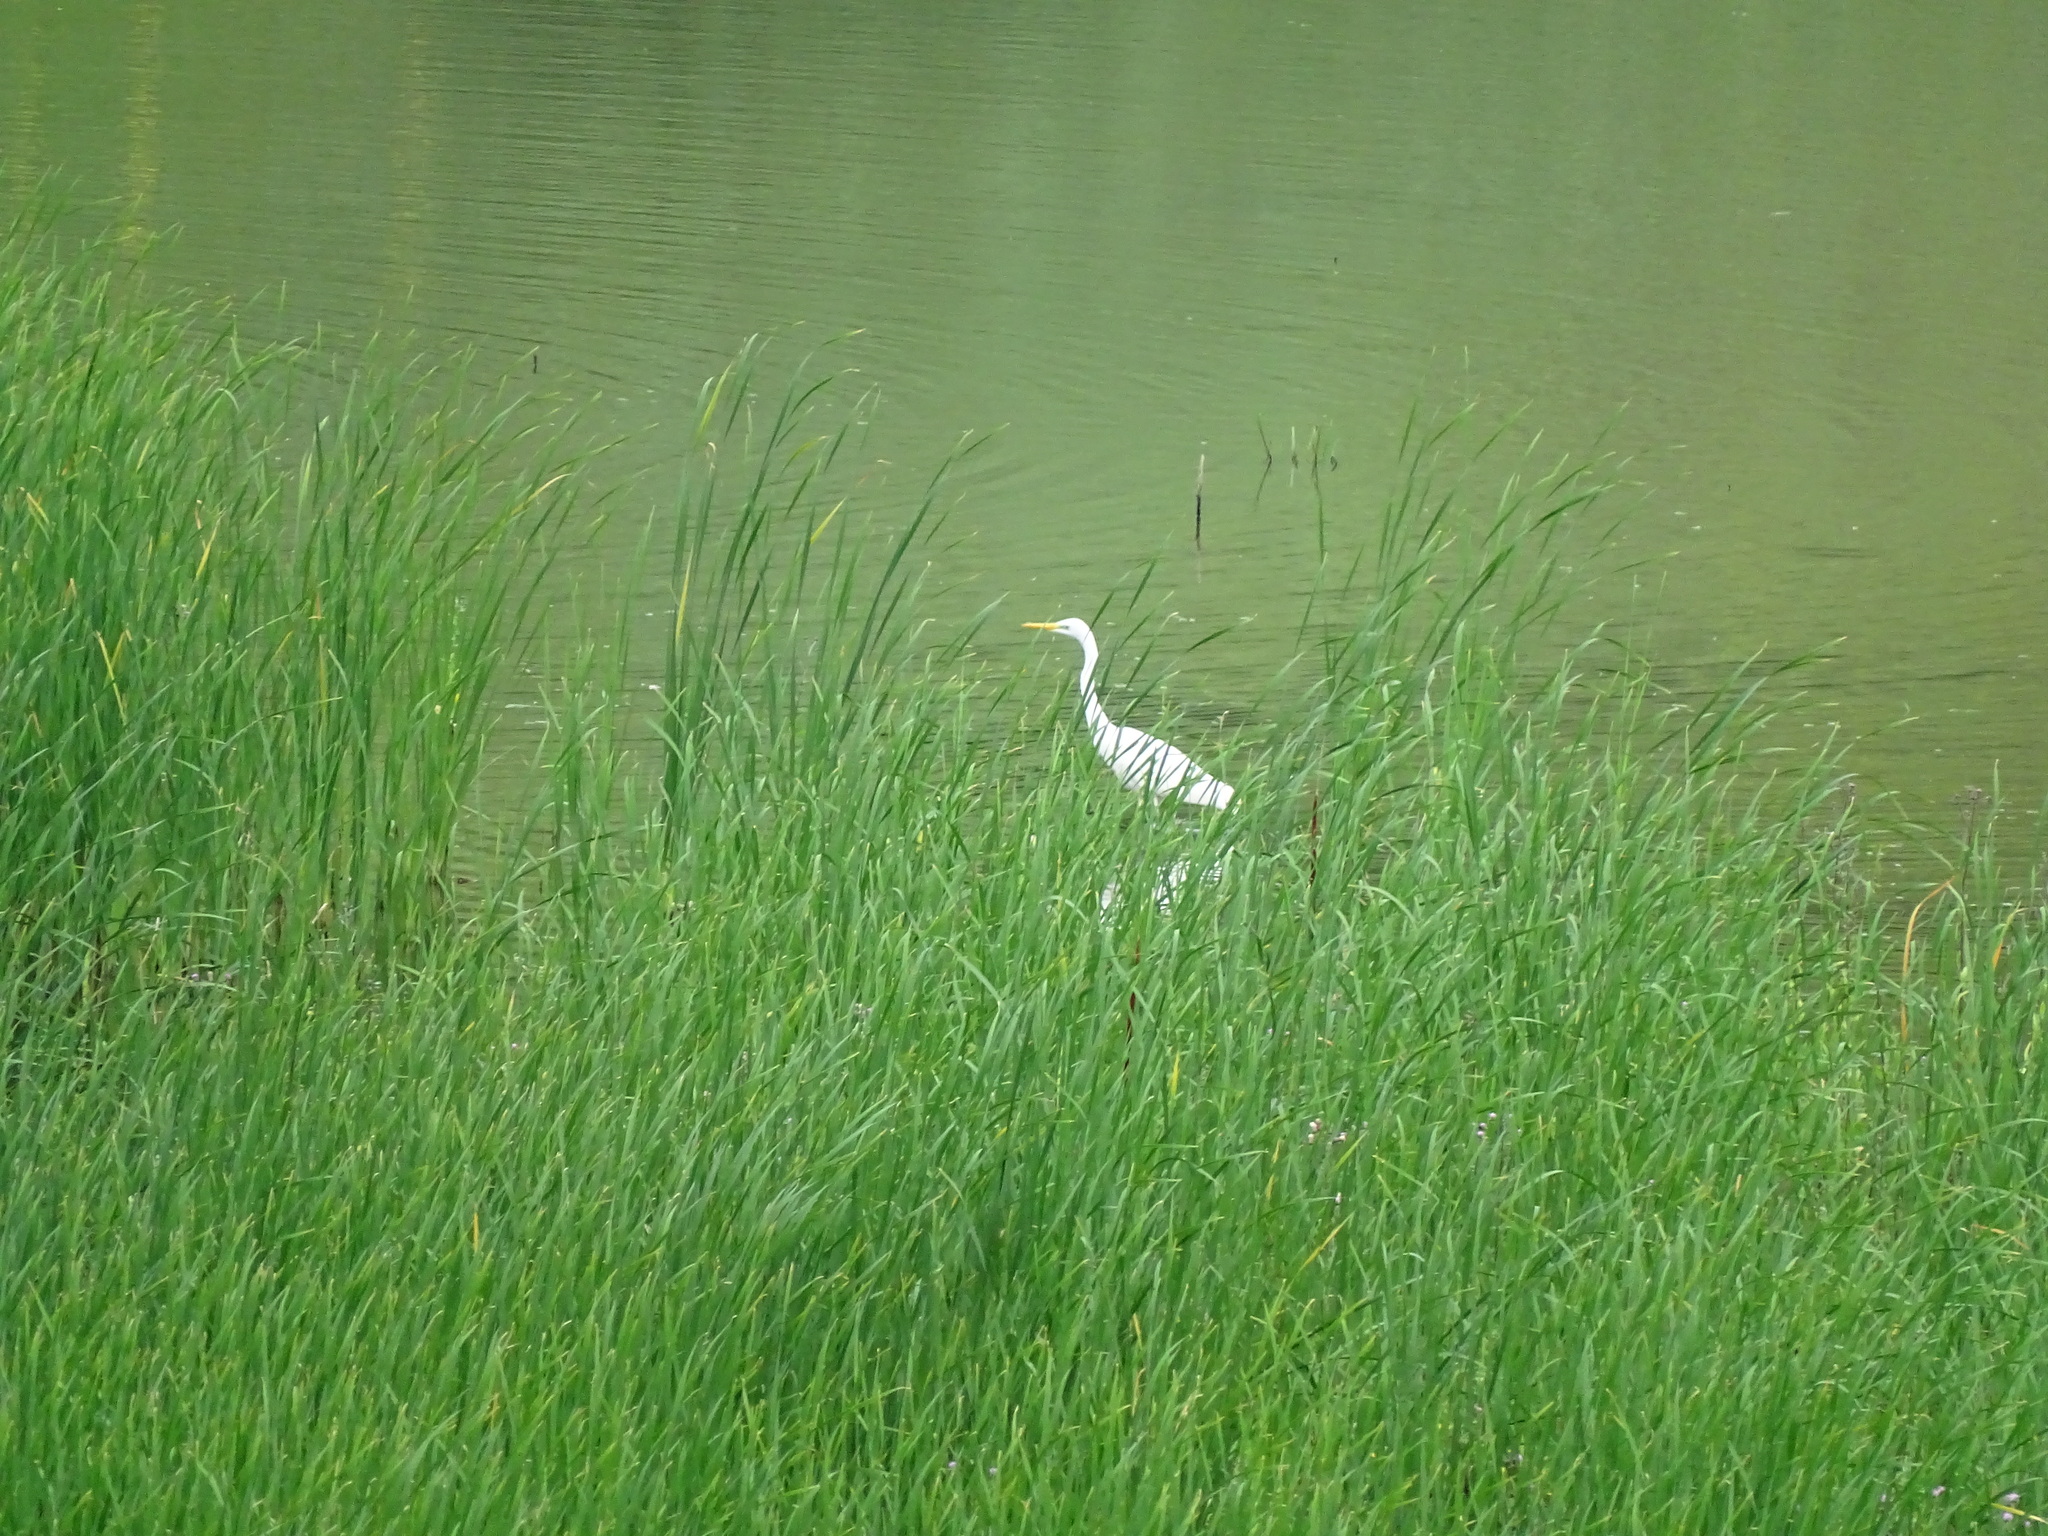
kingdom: Animalia
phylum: Chordata
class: Aves
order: Pelecaniformes
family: Ardeidae
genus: Ardea
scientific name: Ardea alba
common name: Great egret
